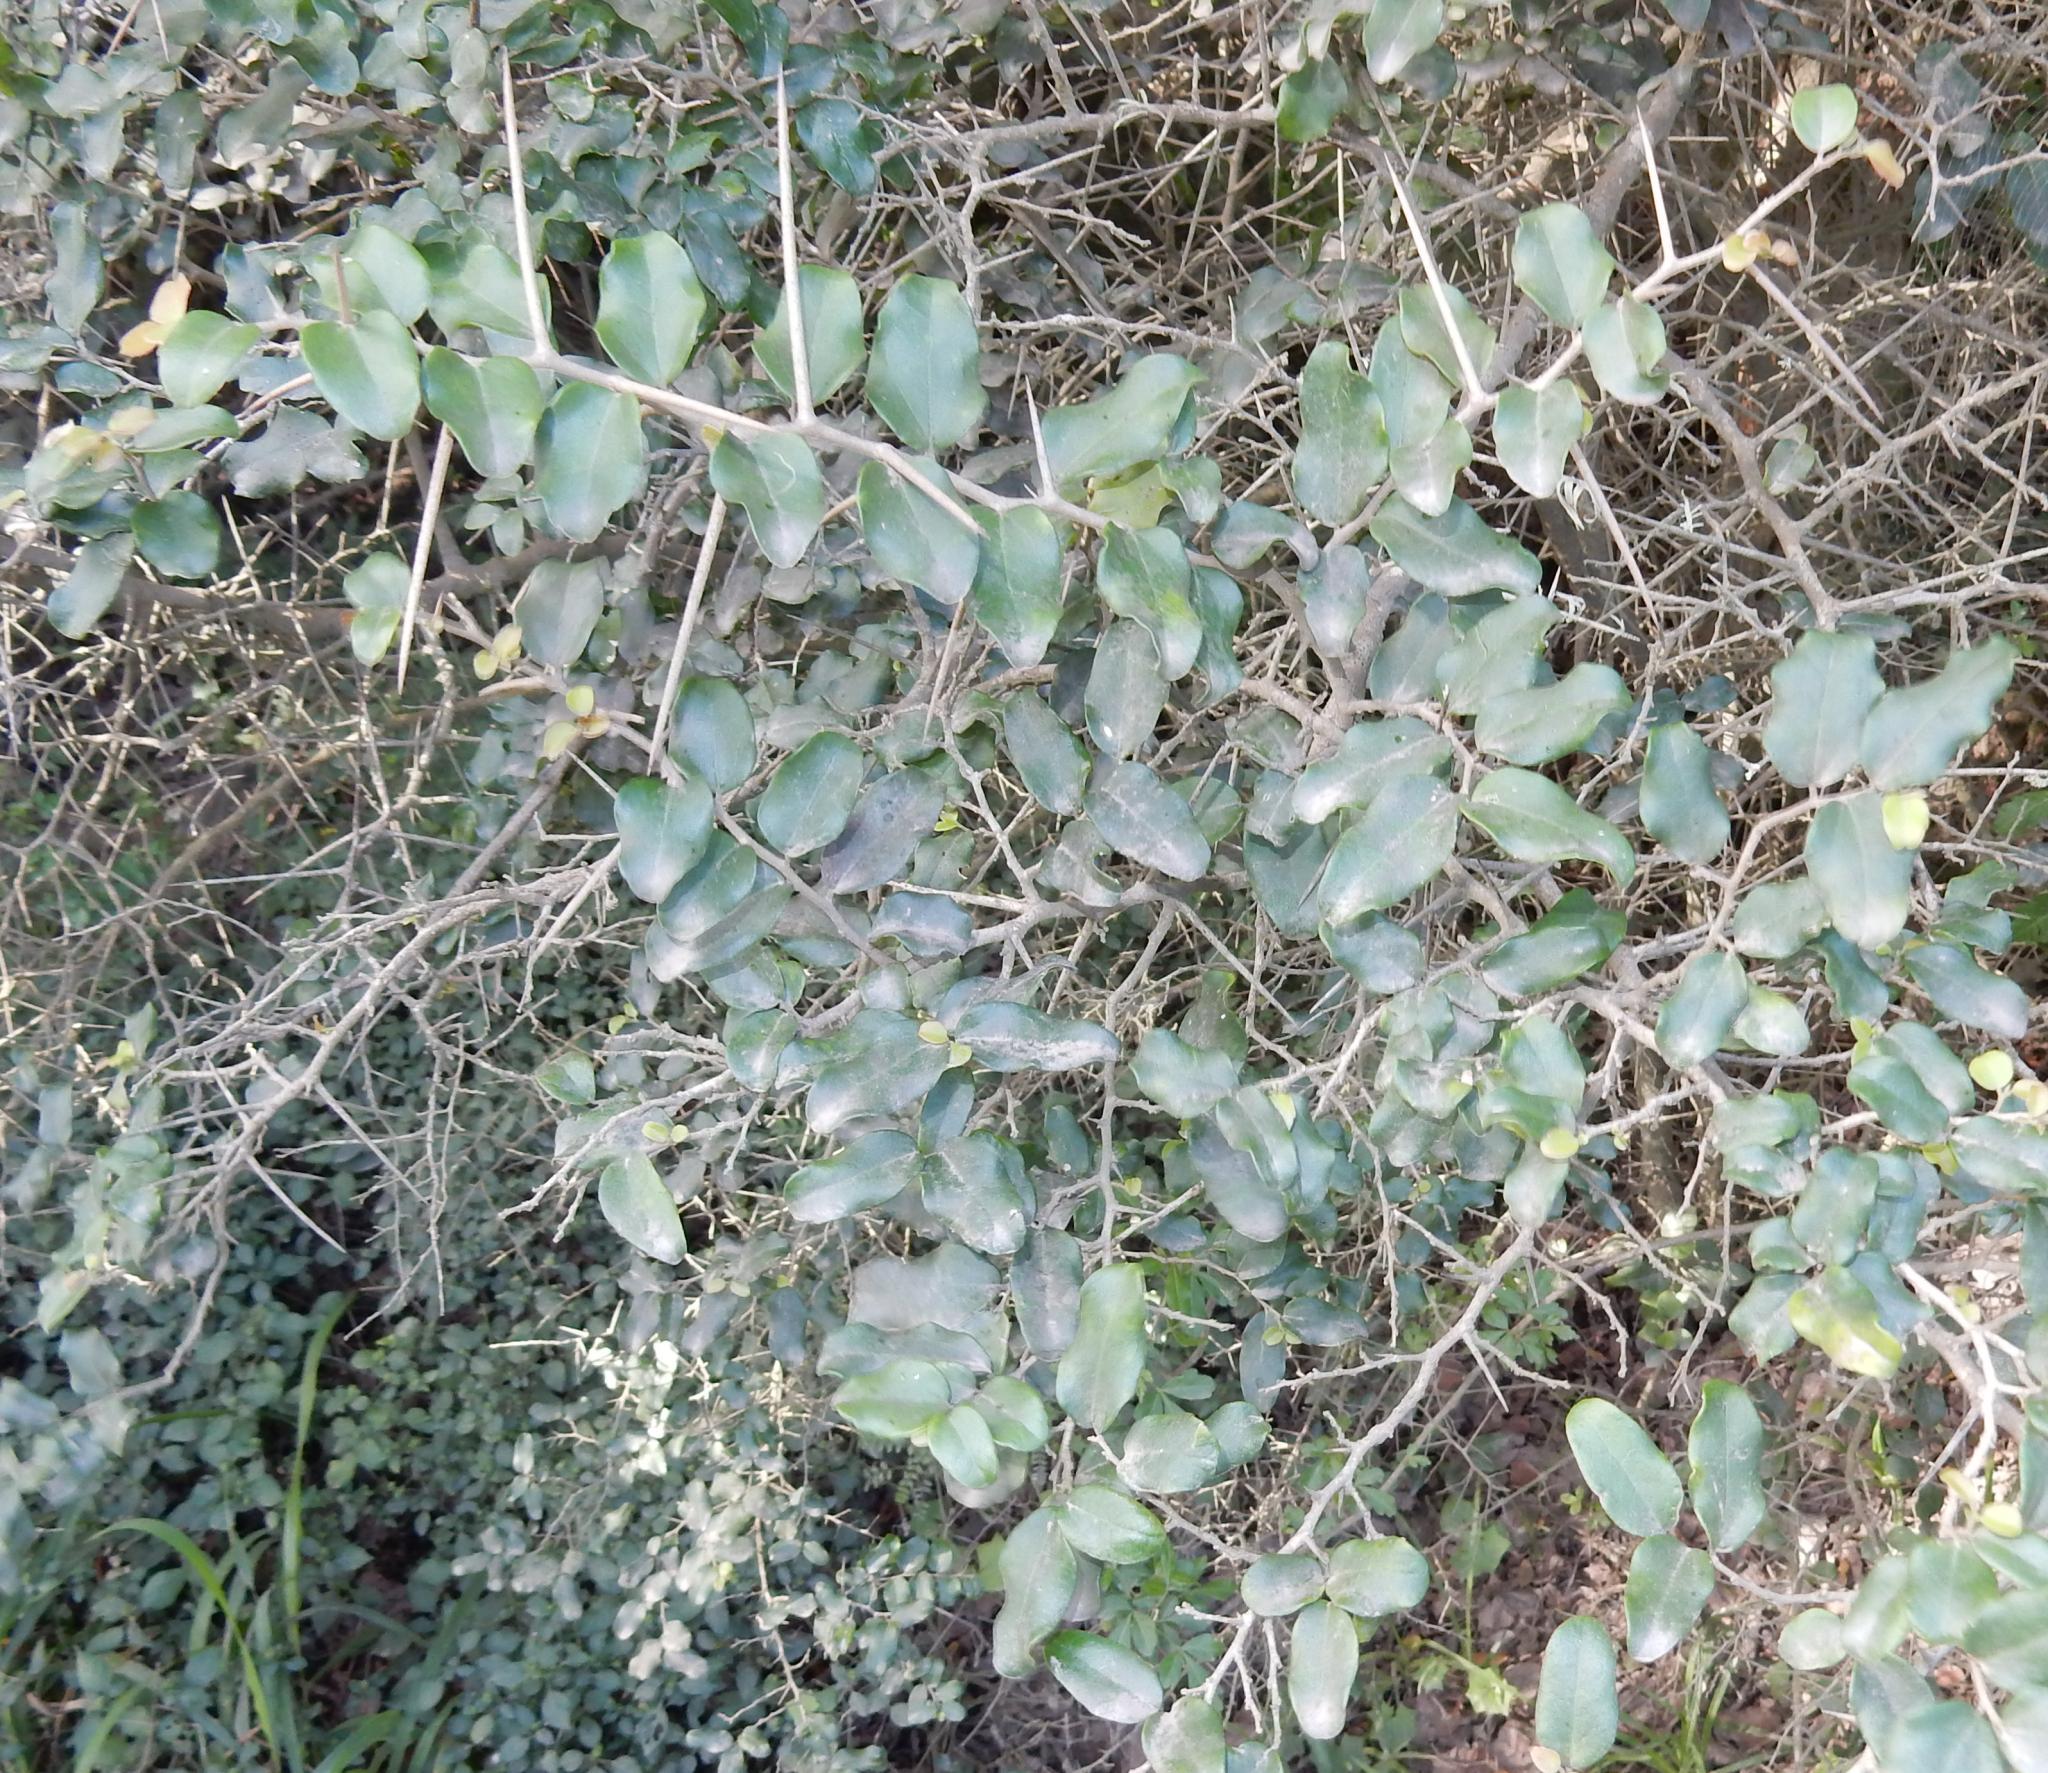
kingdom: Plantae
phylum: Tracheophyta
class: Magnoliopsida
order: Malpighiales
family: Salicaceae
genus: Dovyalis
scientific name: Dovyalis caffra
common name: Kei-apple
